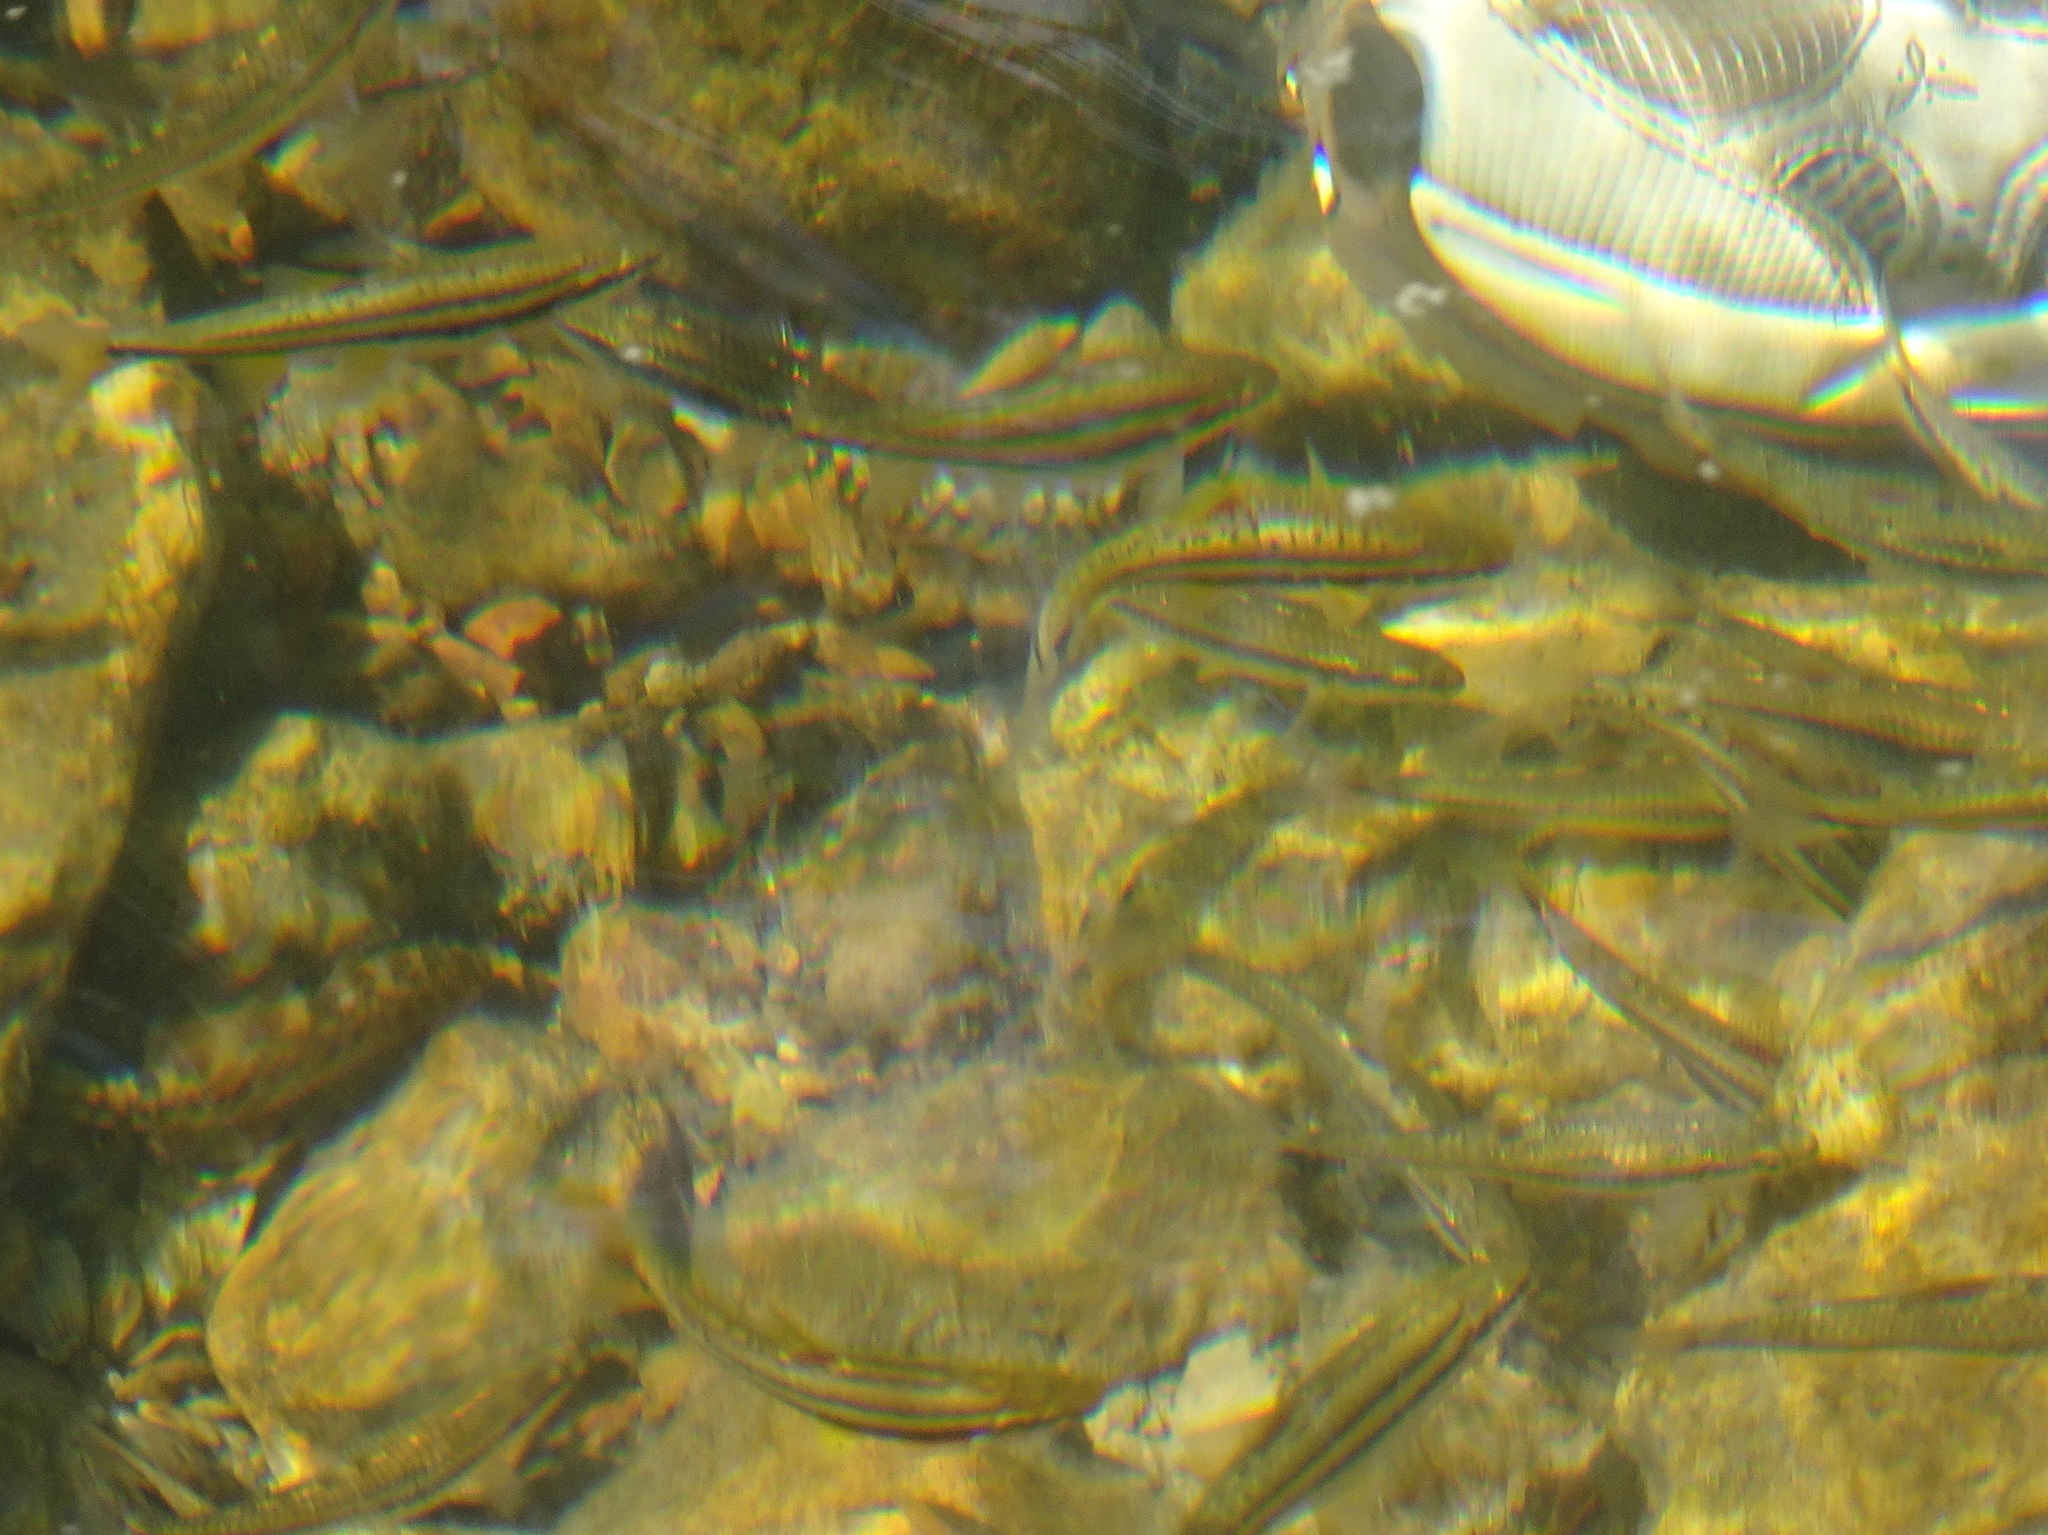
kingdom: Animalia
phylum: Chordata
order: Cypriniformes
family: Cyprinidae
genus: Chrosomus
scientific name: Chrosomus erythrogaster
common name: Southern redbelly dace
